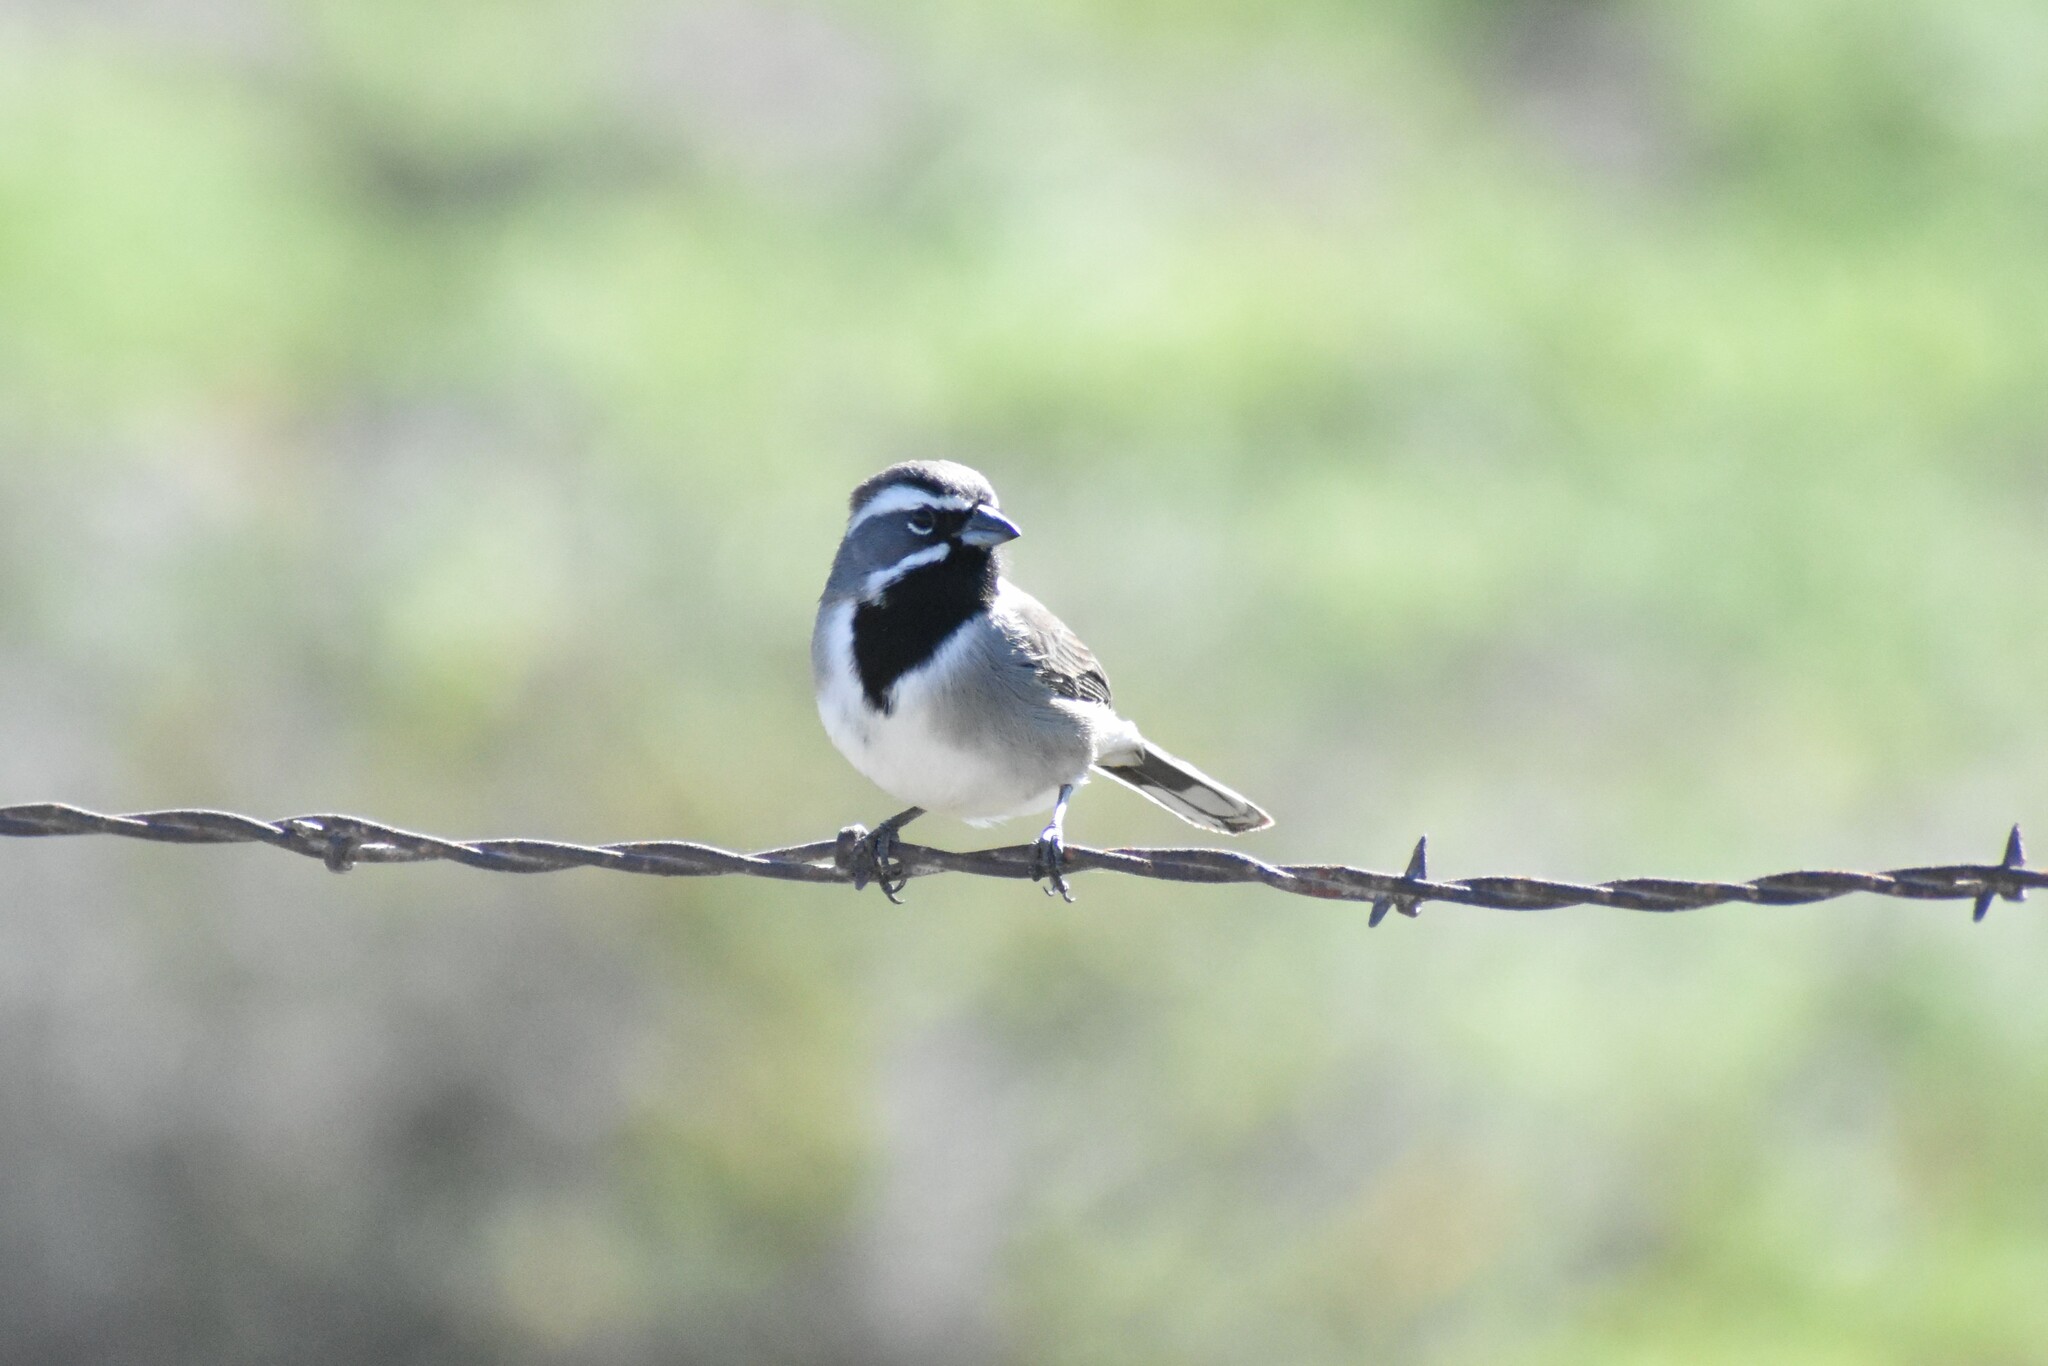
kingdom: Animalia
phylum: Chordata
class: Aves
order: Passeriformes
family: Passerellidae
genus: Amphispiza
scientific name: Amphispiza bilineata
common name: Black-throated sparrow
